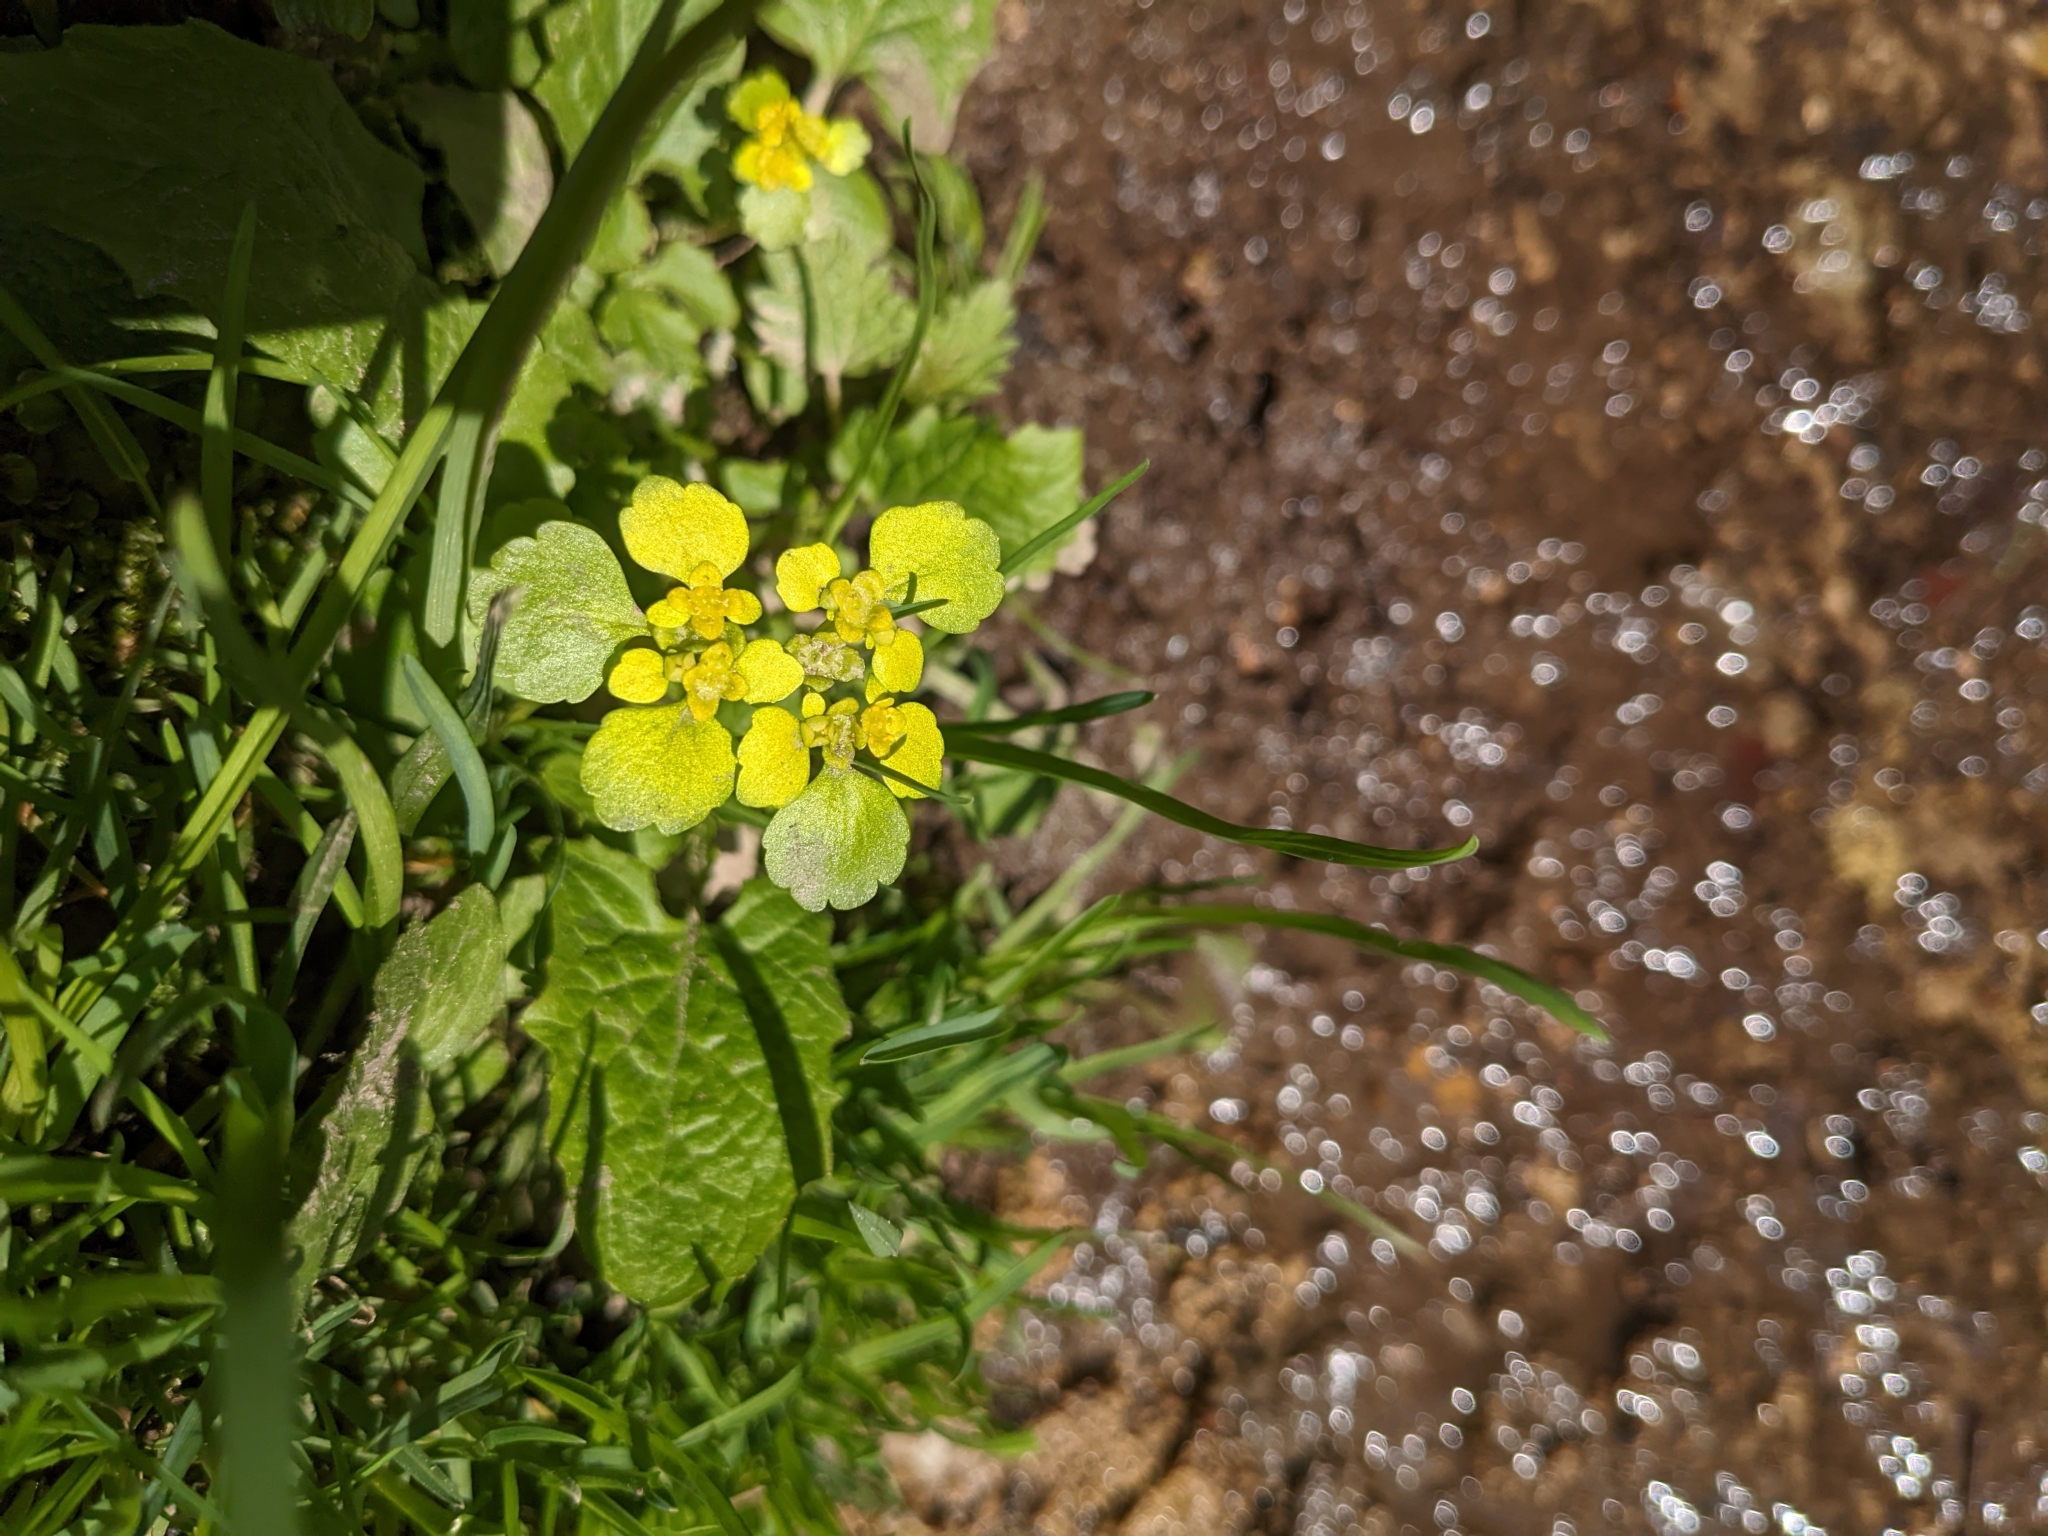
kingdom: Plantae
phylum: Tracheophyta
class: Magnoliopsida
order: Saxifragales
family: Saxifragaceae
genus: Chrysosplenium
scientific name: Chrysosplenium alternifolium
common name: Alternate-leaved golden-saxifrage
